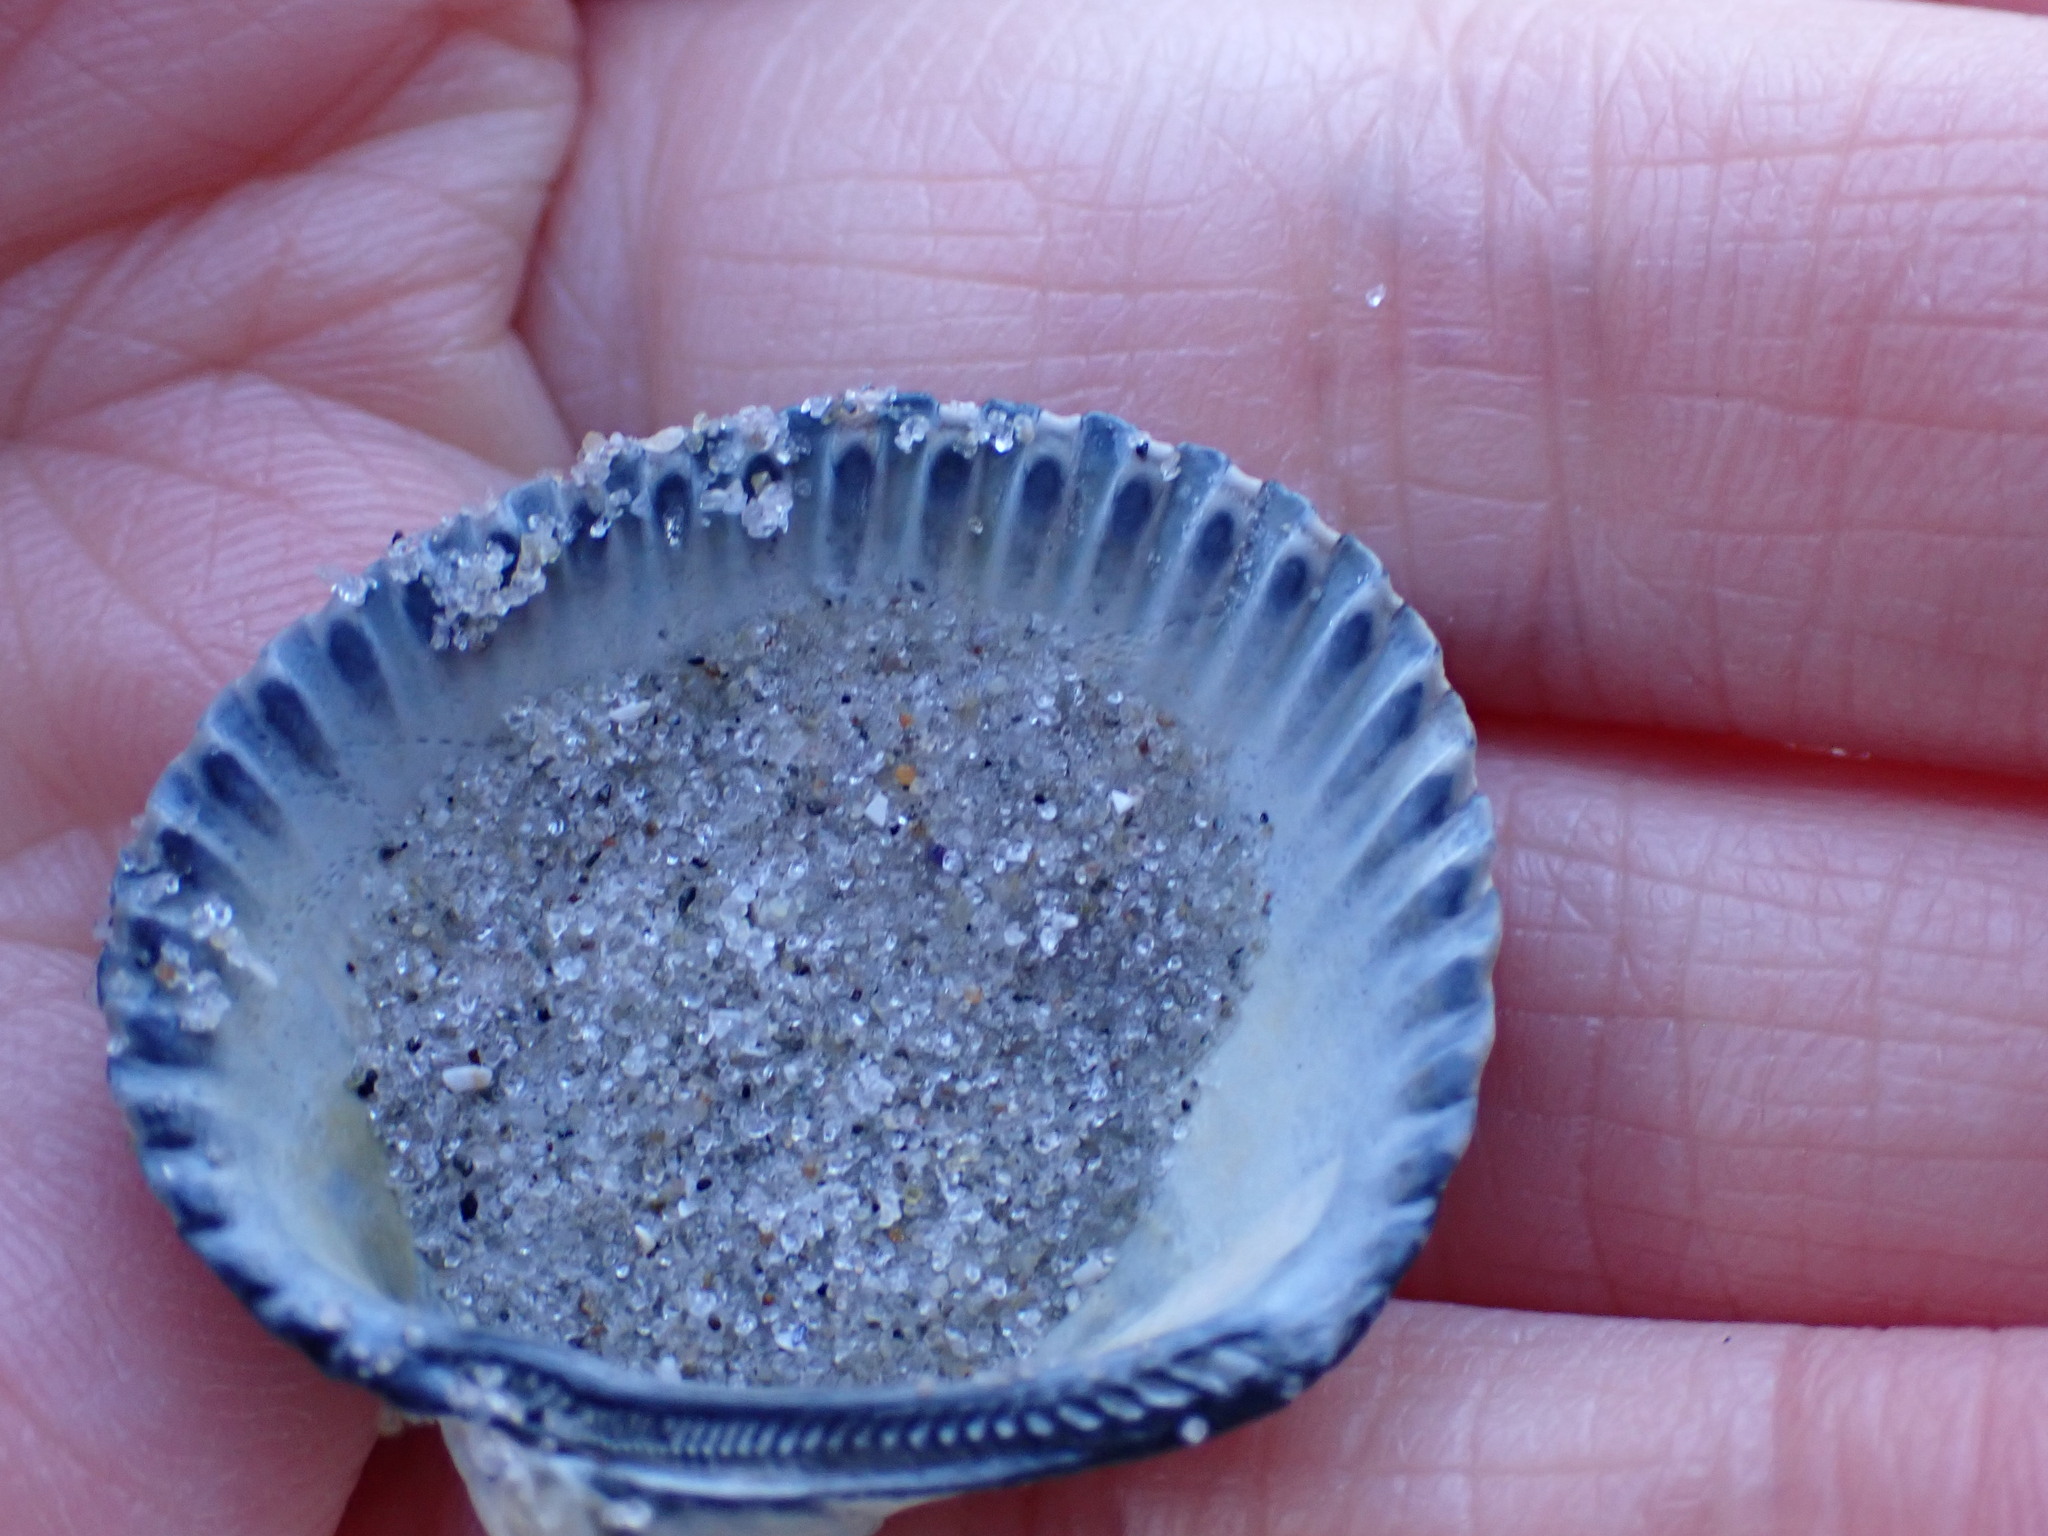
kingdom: Animalia
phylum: Mollusca
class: Bivalvia
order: Arcida
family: Arcidae
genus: Lunarca
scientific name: Lunarca ovalis
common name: Blood ark
